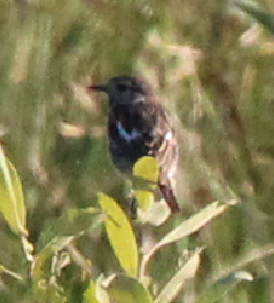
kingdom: Animalia
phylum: Chordata
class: Aves
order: Passeriformes
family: Muscicapidae
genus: Saxicola
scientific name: Saxicola rubicola
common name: European stonechat
